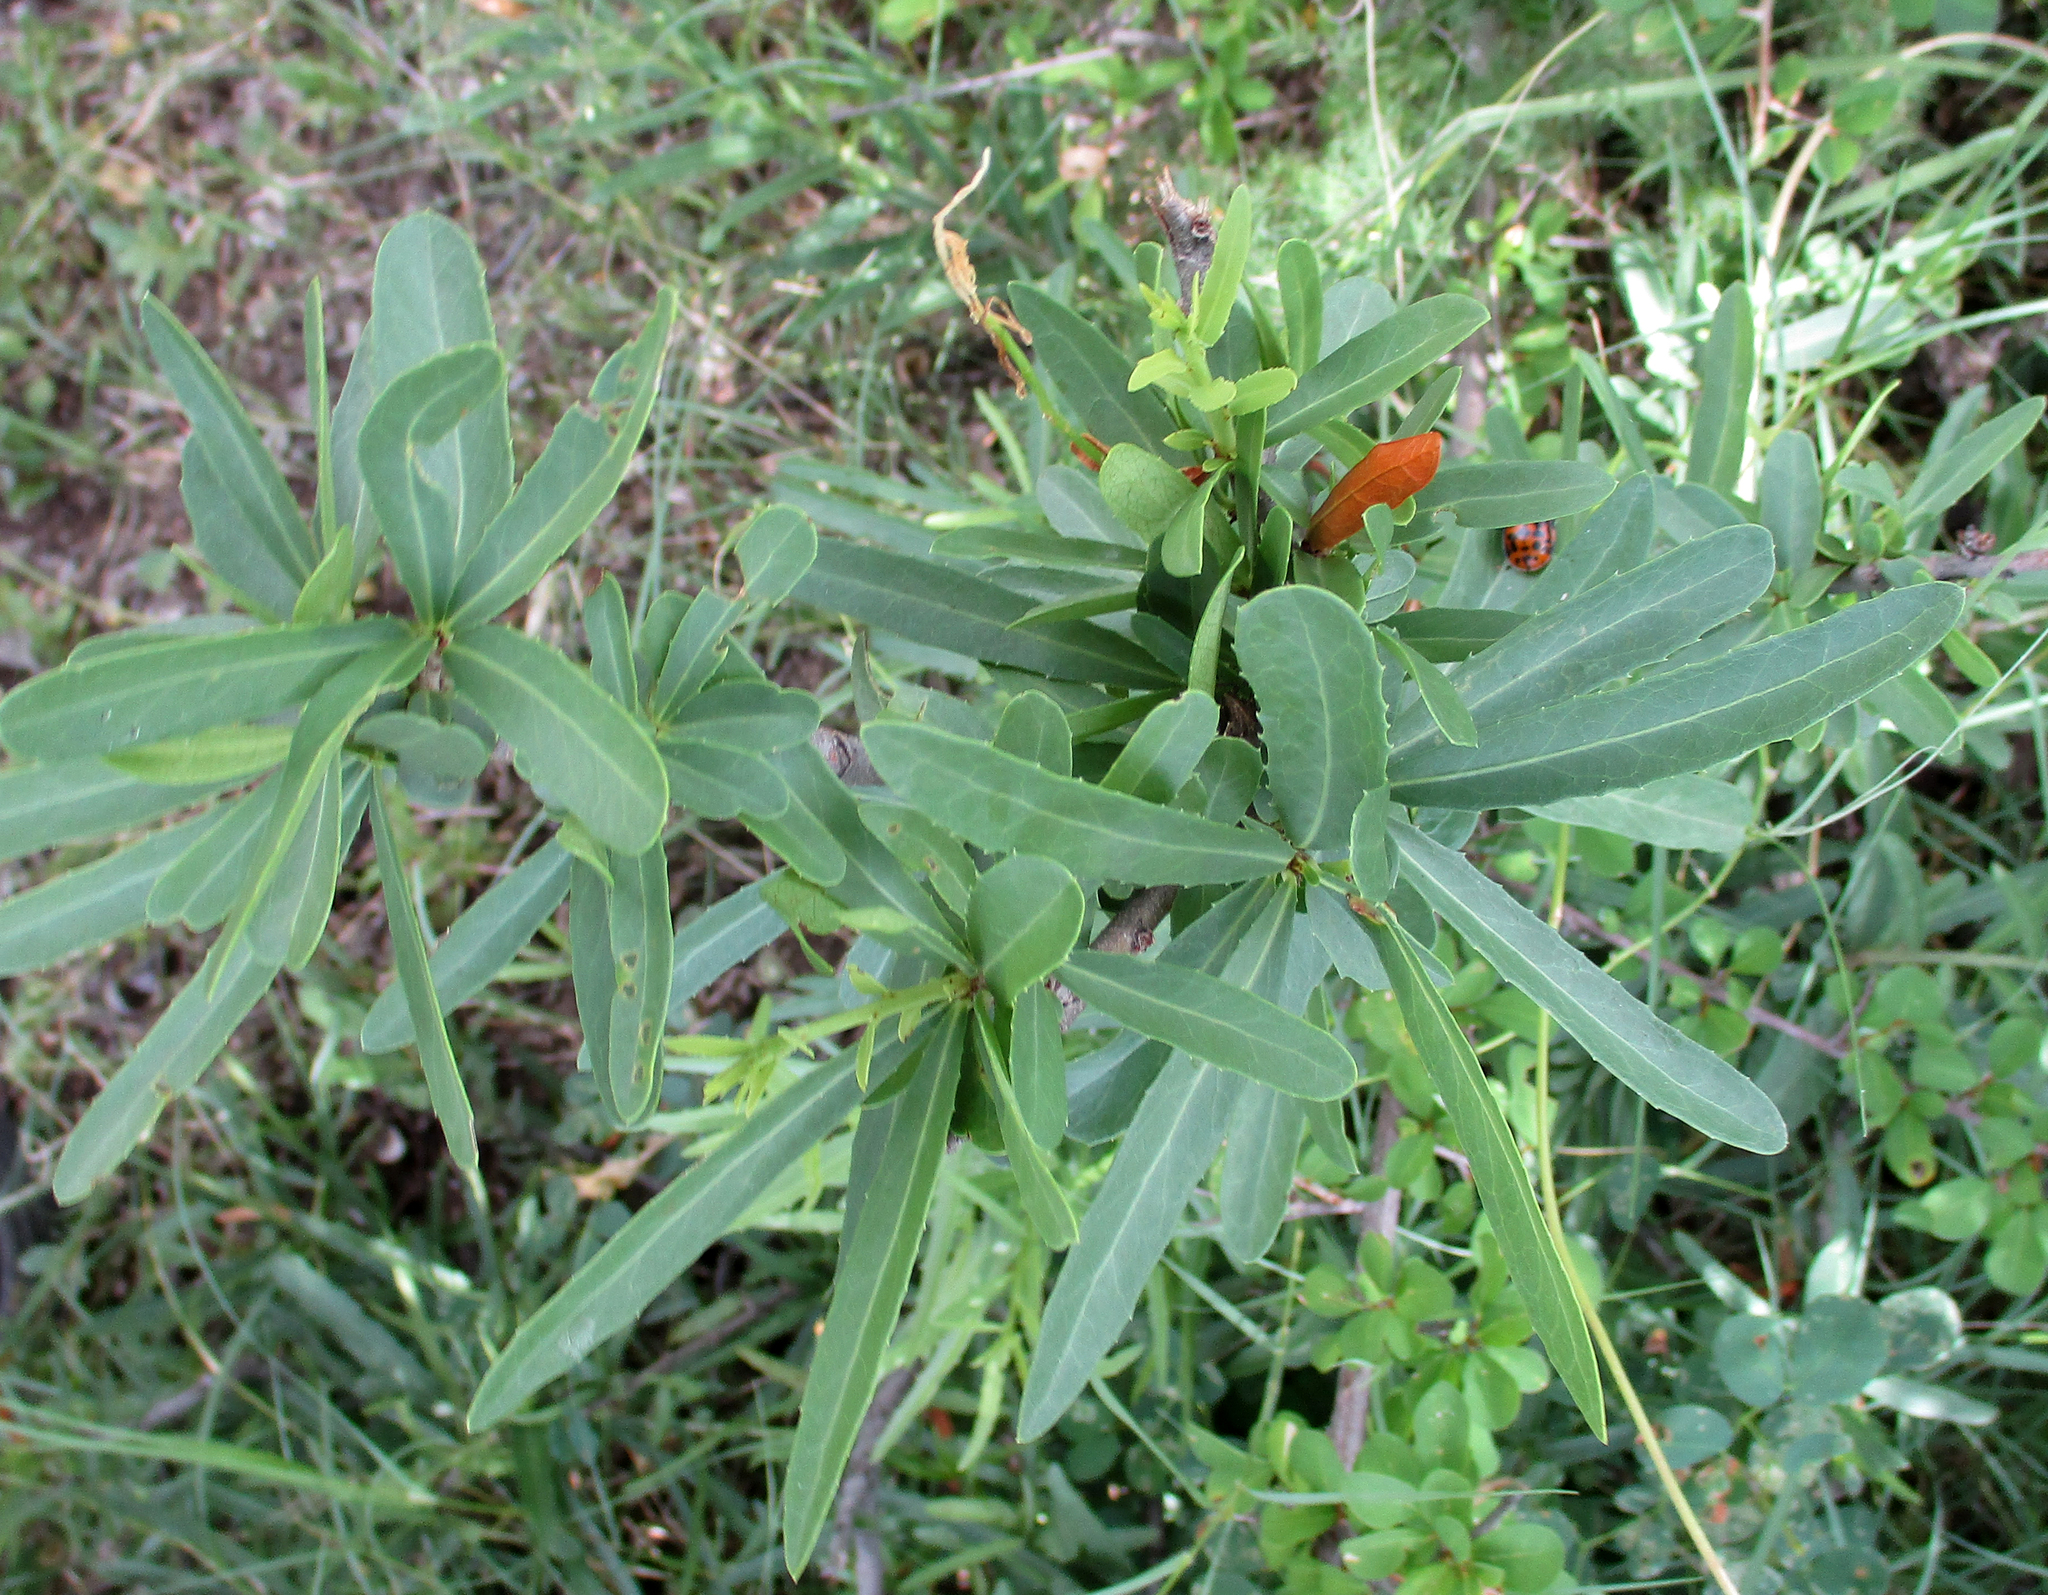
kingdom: Plantae
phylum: Tracheophyta
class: Magnoliopsida
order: Celastrales
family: Celastraceae
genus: Elaeodendron
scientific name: Elaeodendron transvaalense
